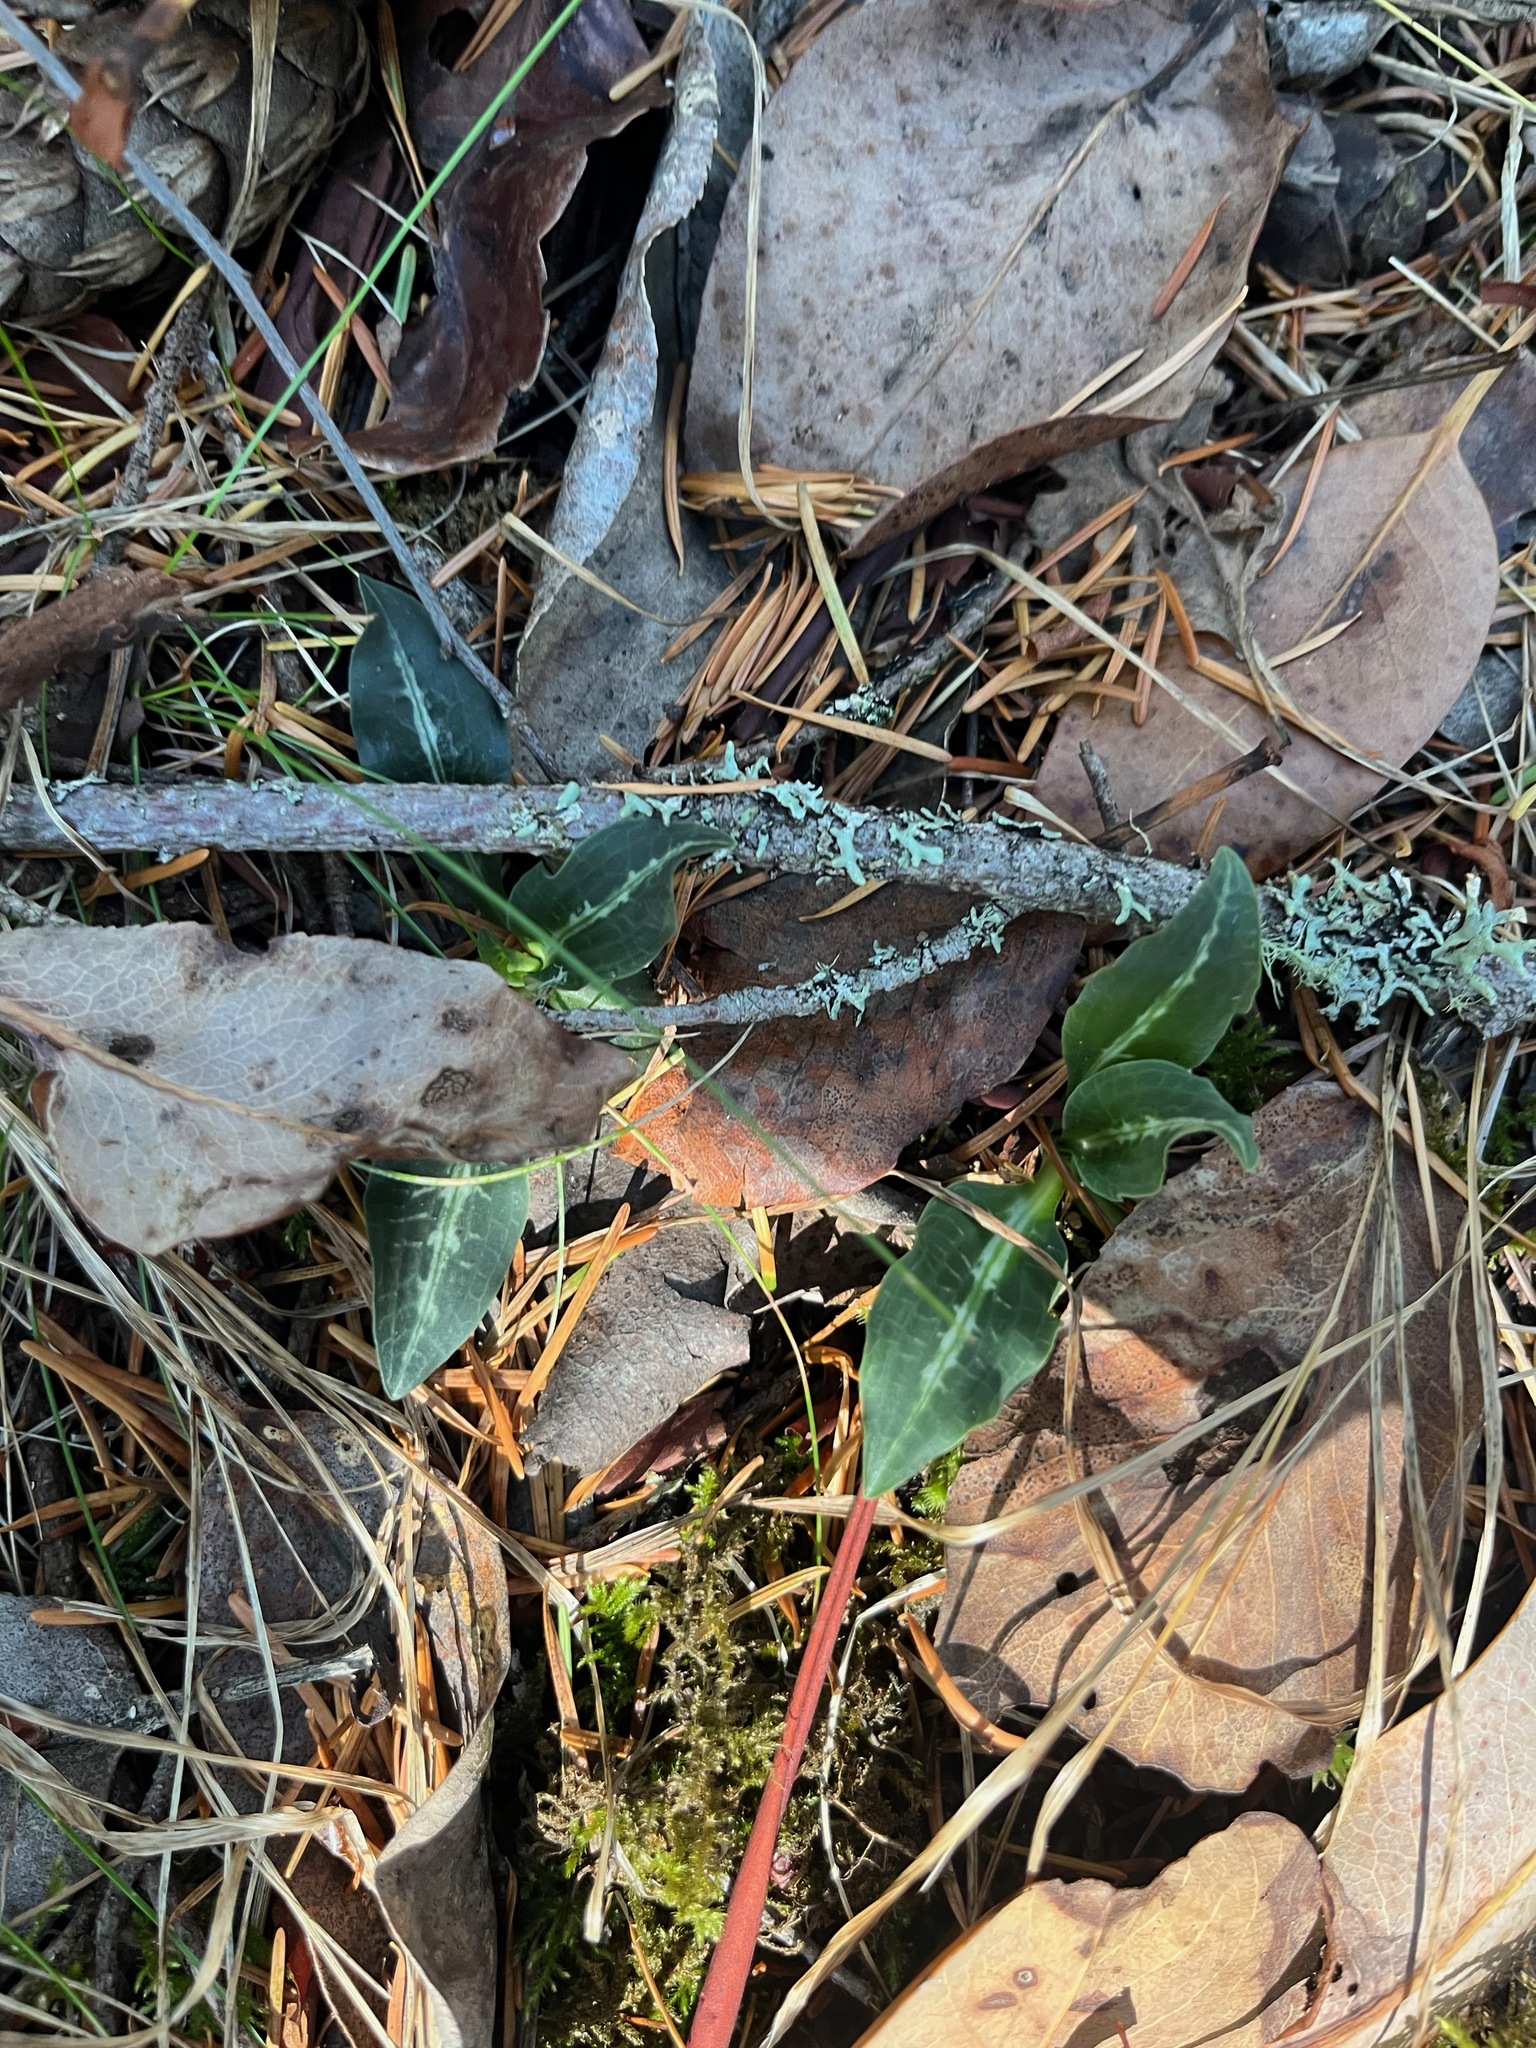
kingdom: Plantae
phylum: Tracheophyta
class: Liliopsida
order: Asparagales
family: Orchidaceae
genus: Goodyera
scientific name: Goodyera oblongifolia
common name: Giant rattlesnake-plantain
